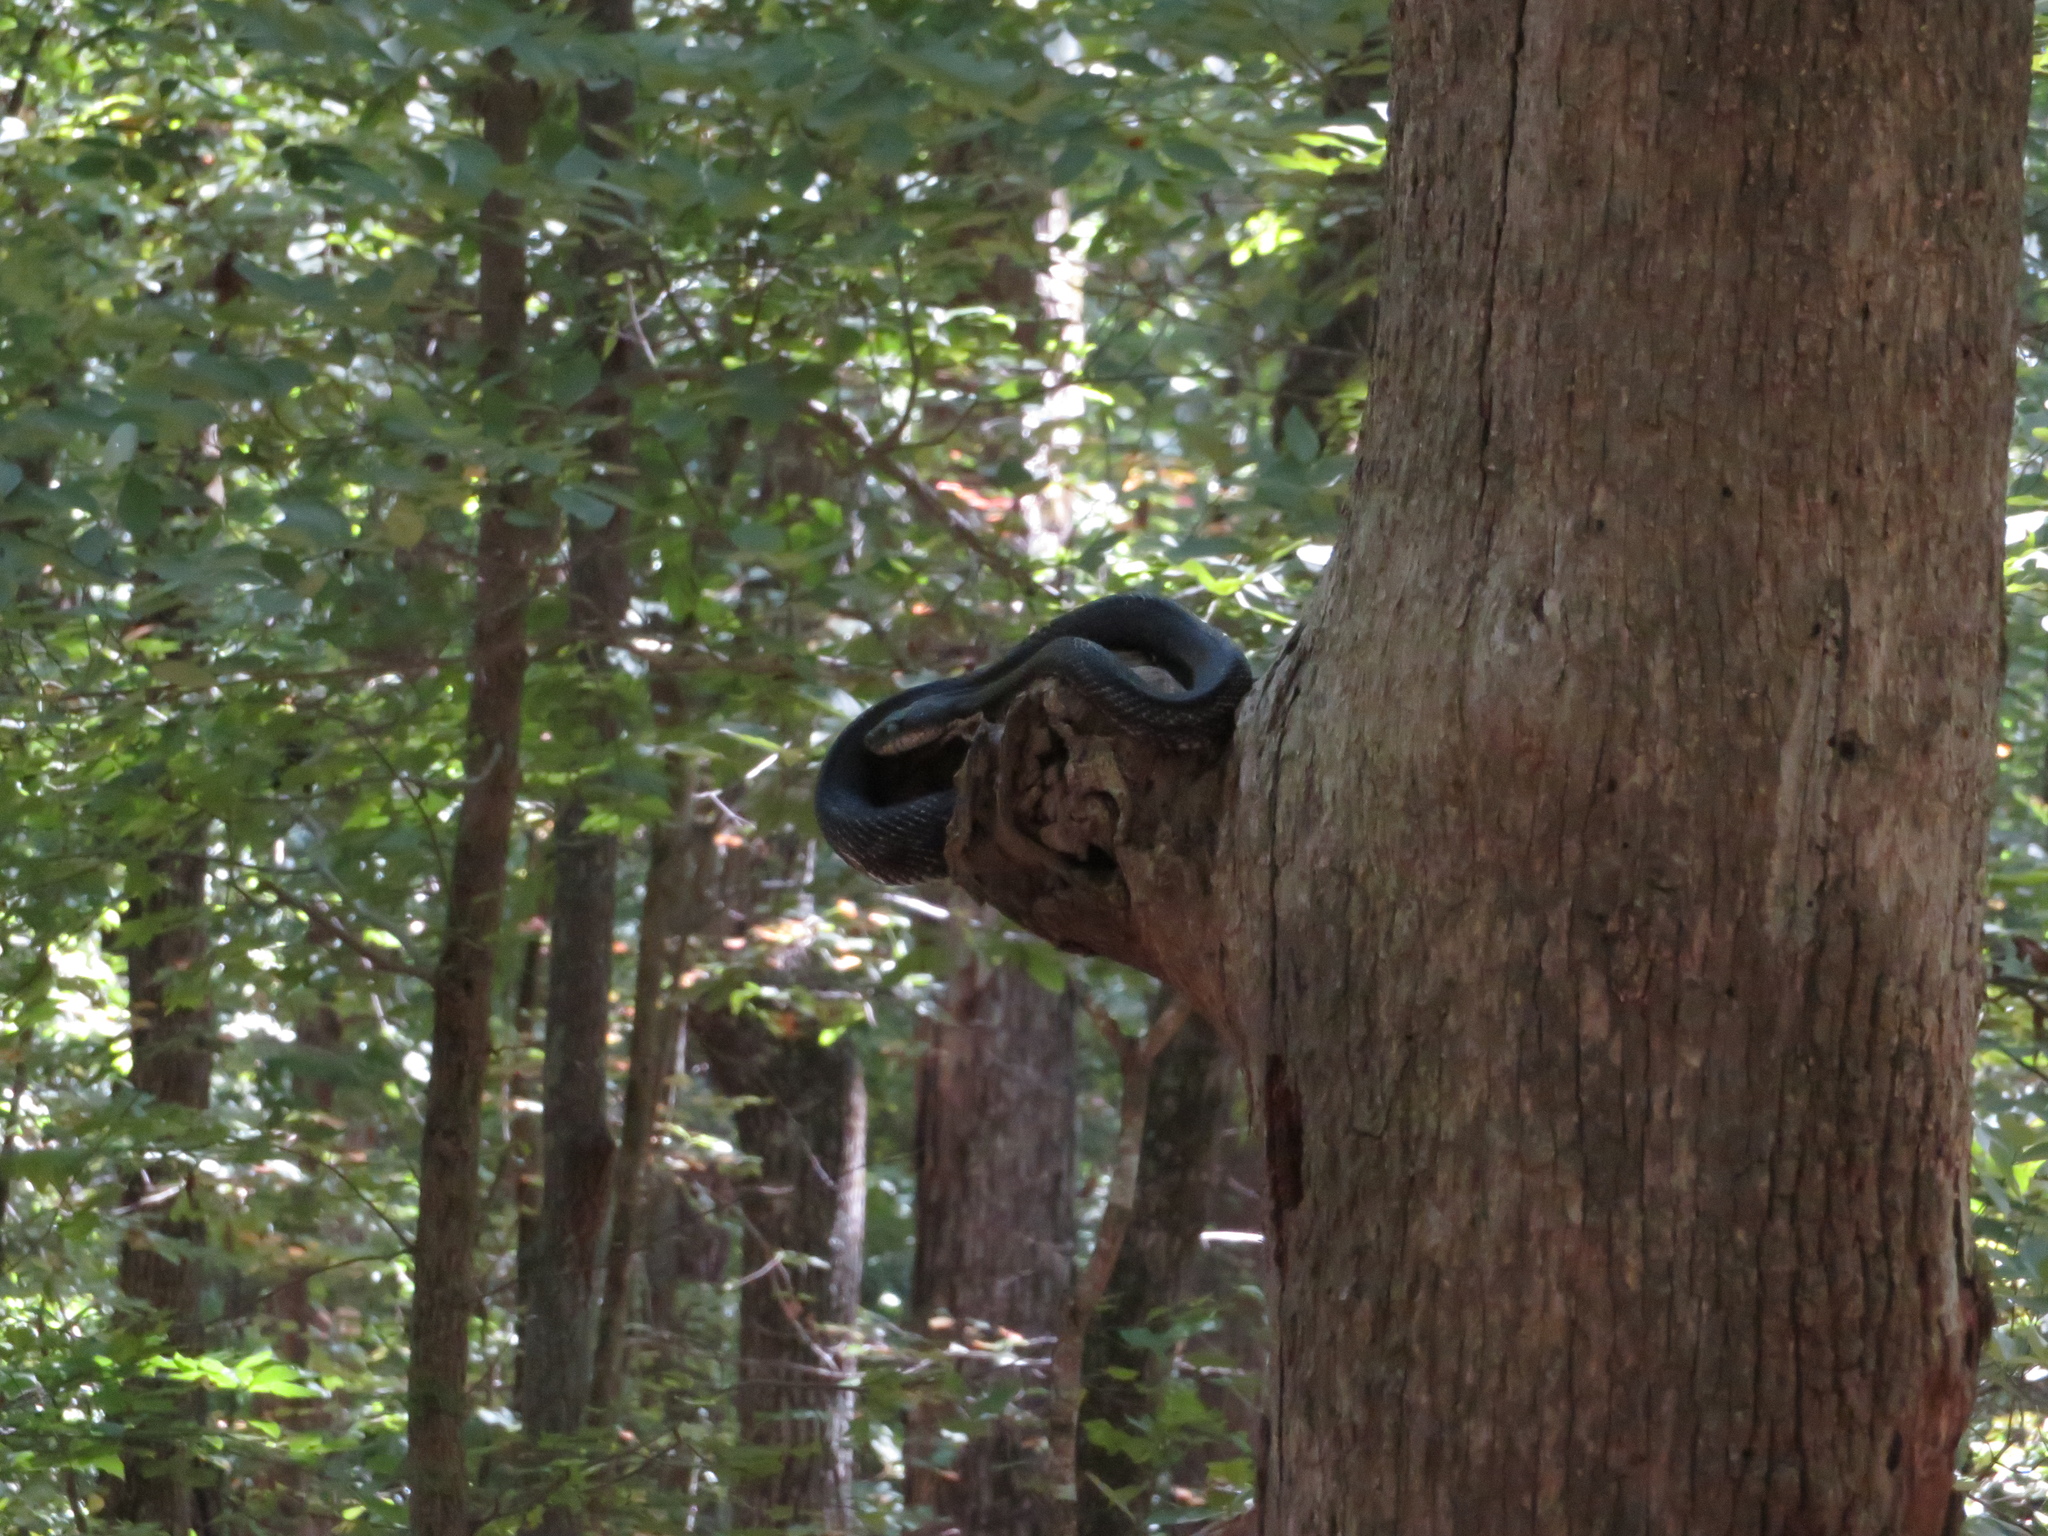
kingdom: Animalia
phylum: Chordata
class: Squamata
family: Colubridae
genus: Pantherophis
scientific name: Pantherophis
